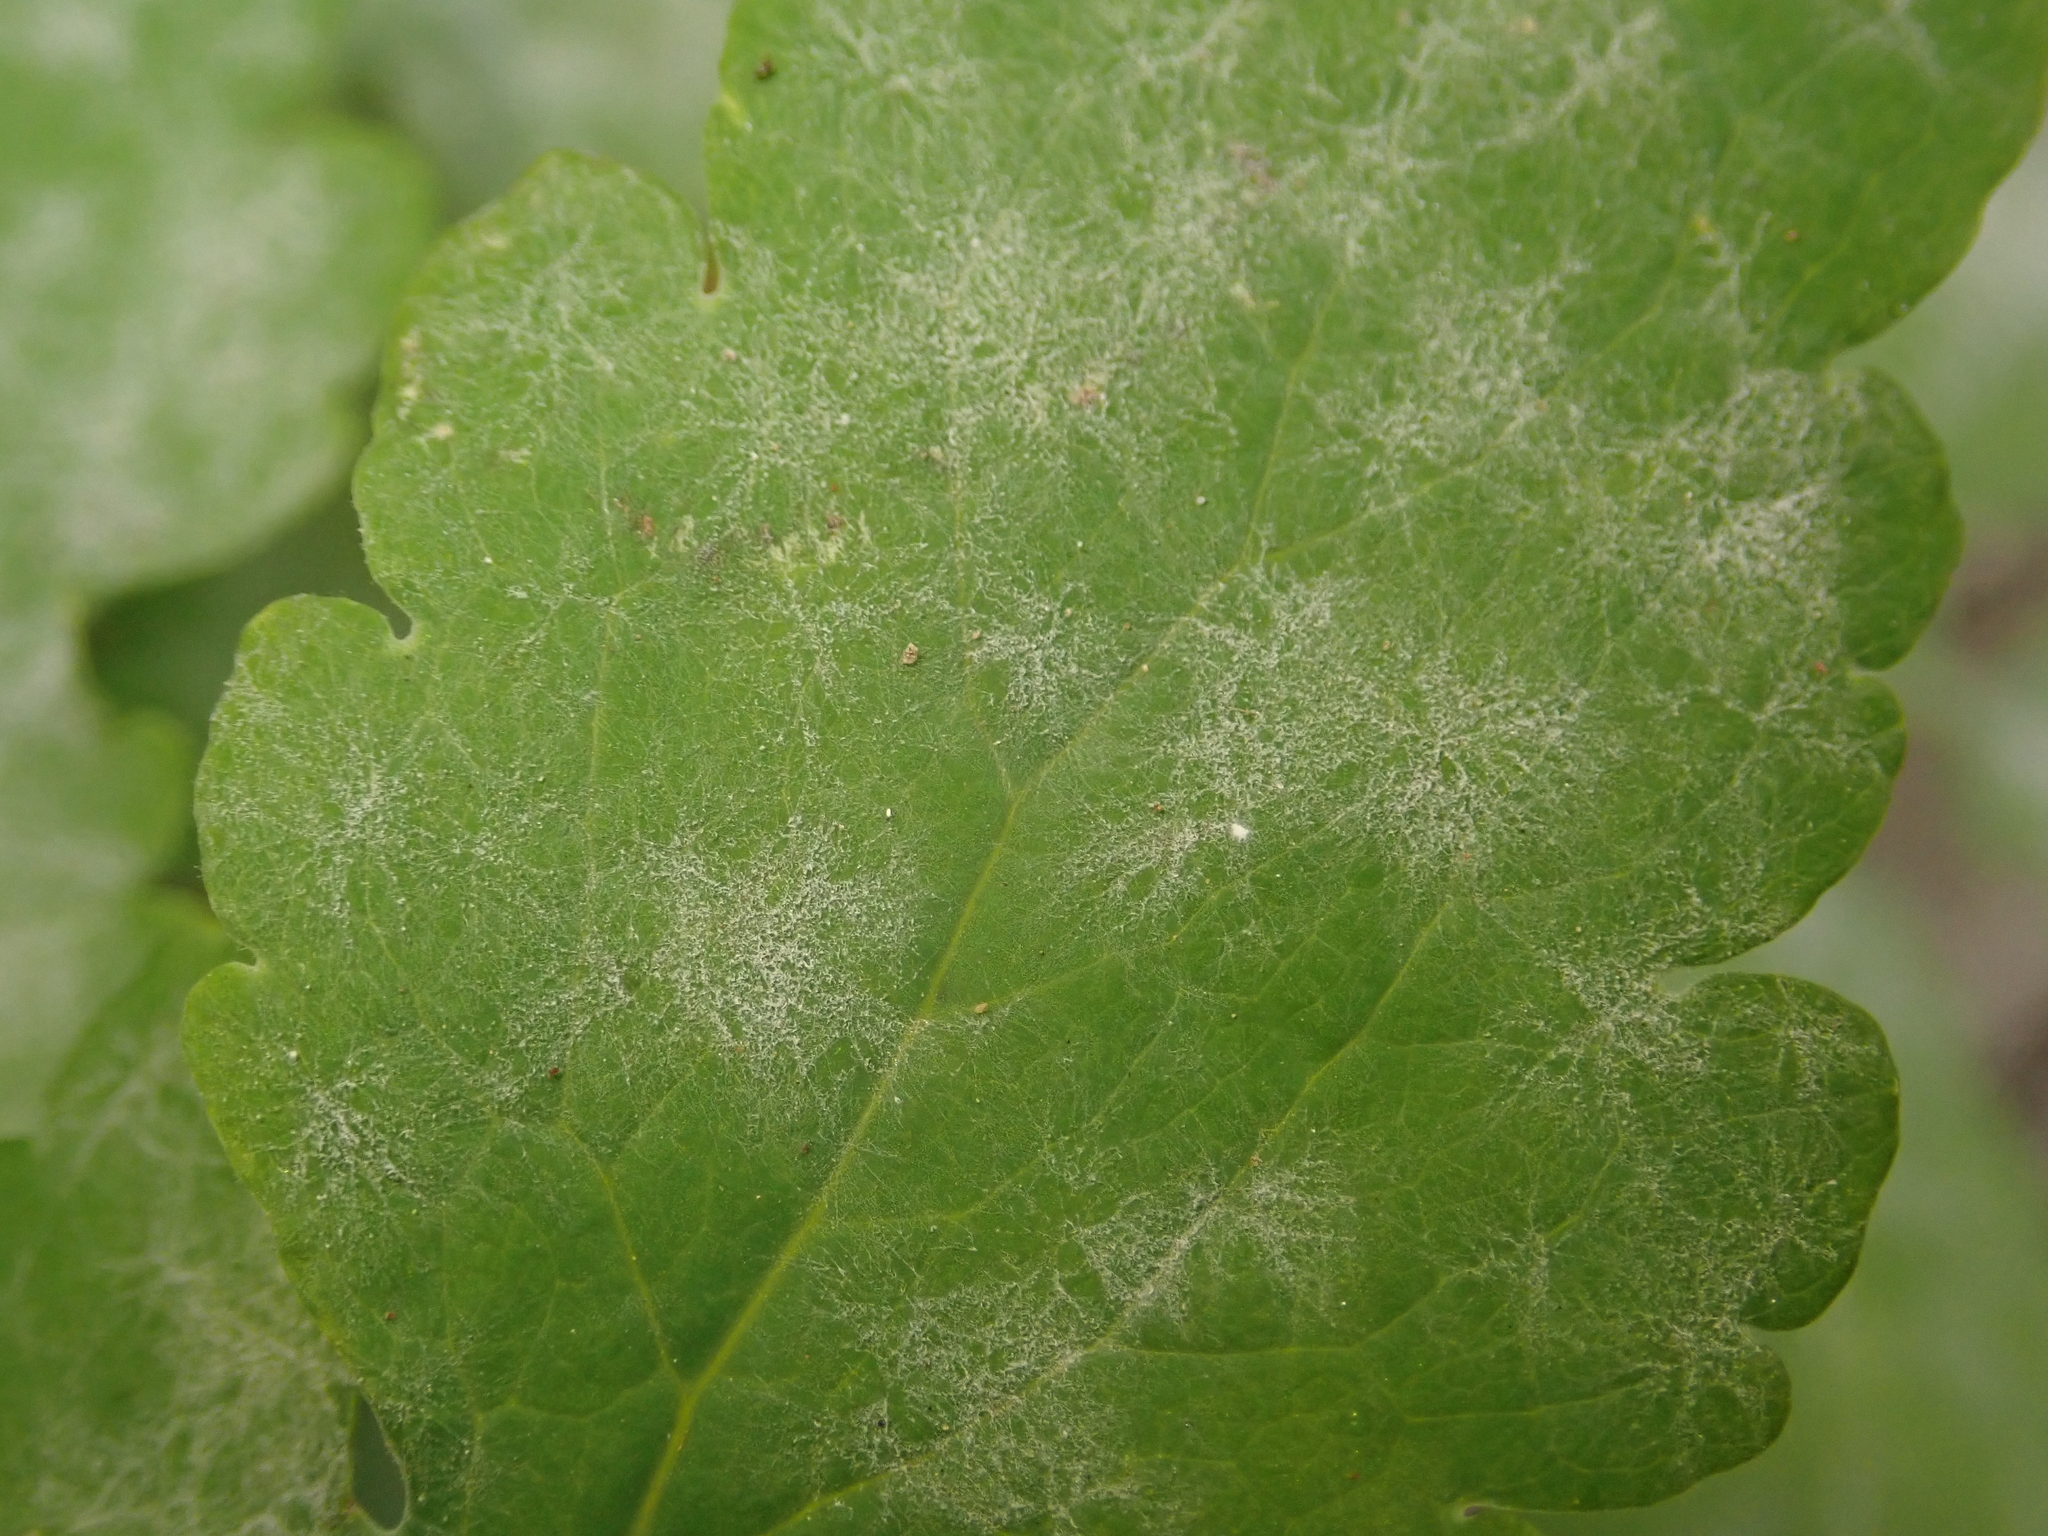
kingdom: Fungi
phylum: Ascomycota
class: Leotiomycetes
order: Helotiales
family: Erysiphaceae
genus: Erysiphe
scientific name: Erysiphe macleayae
